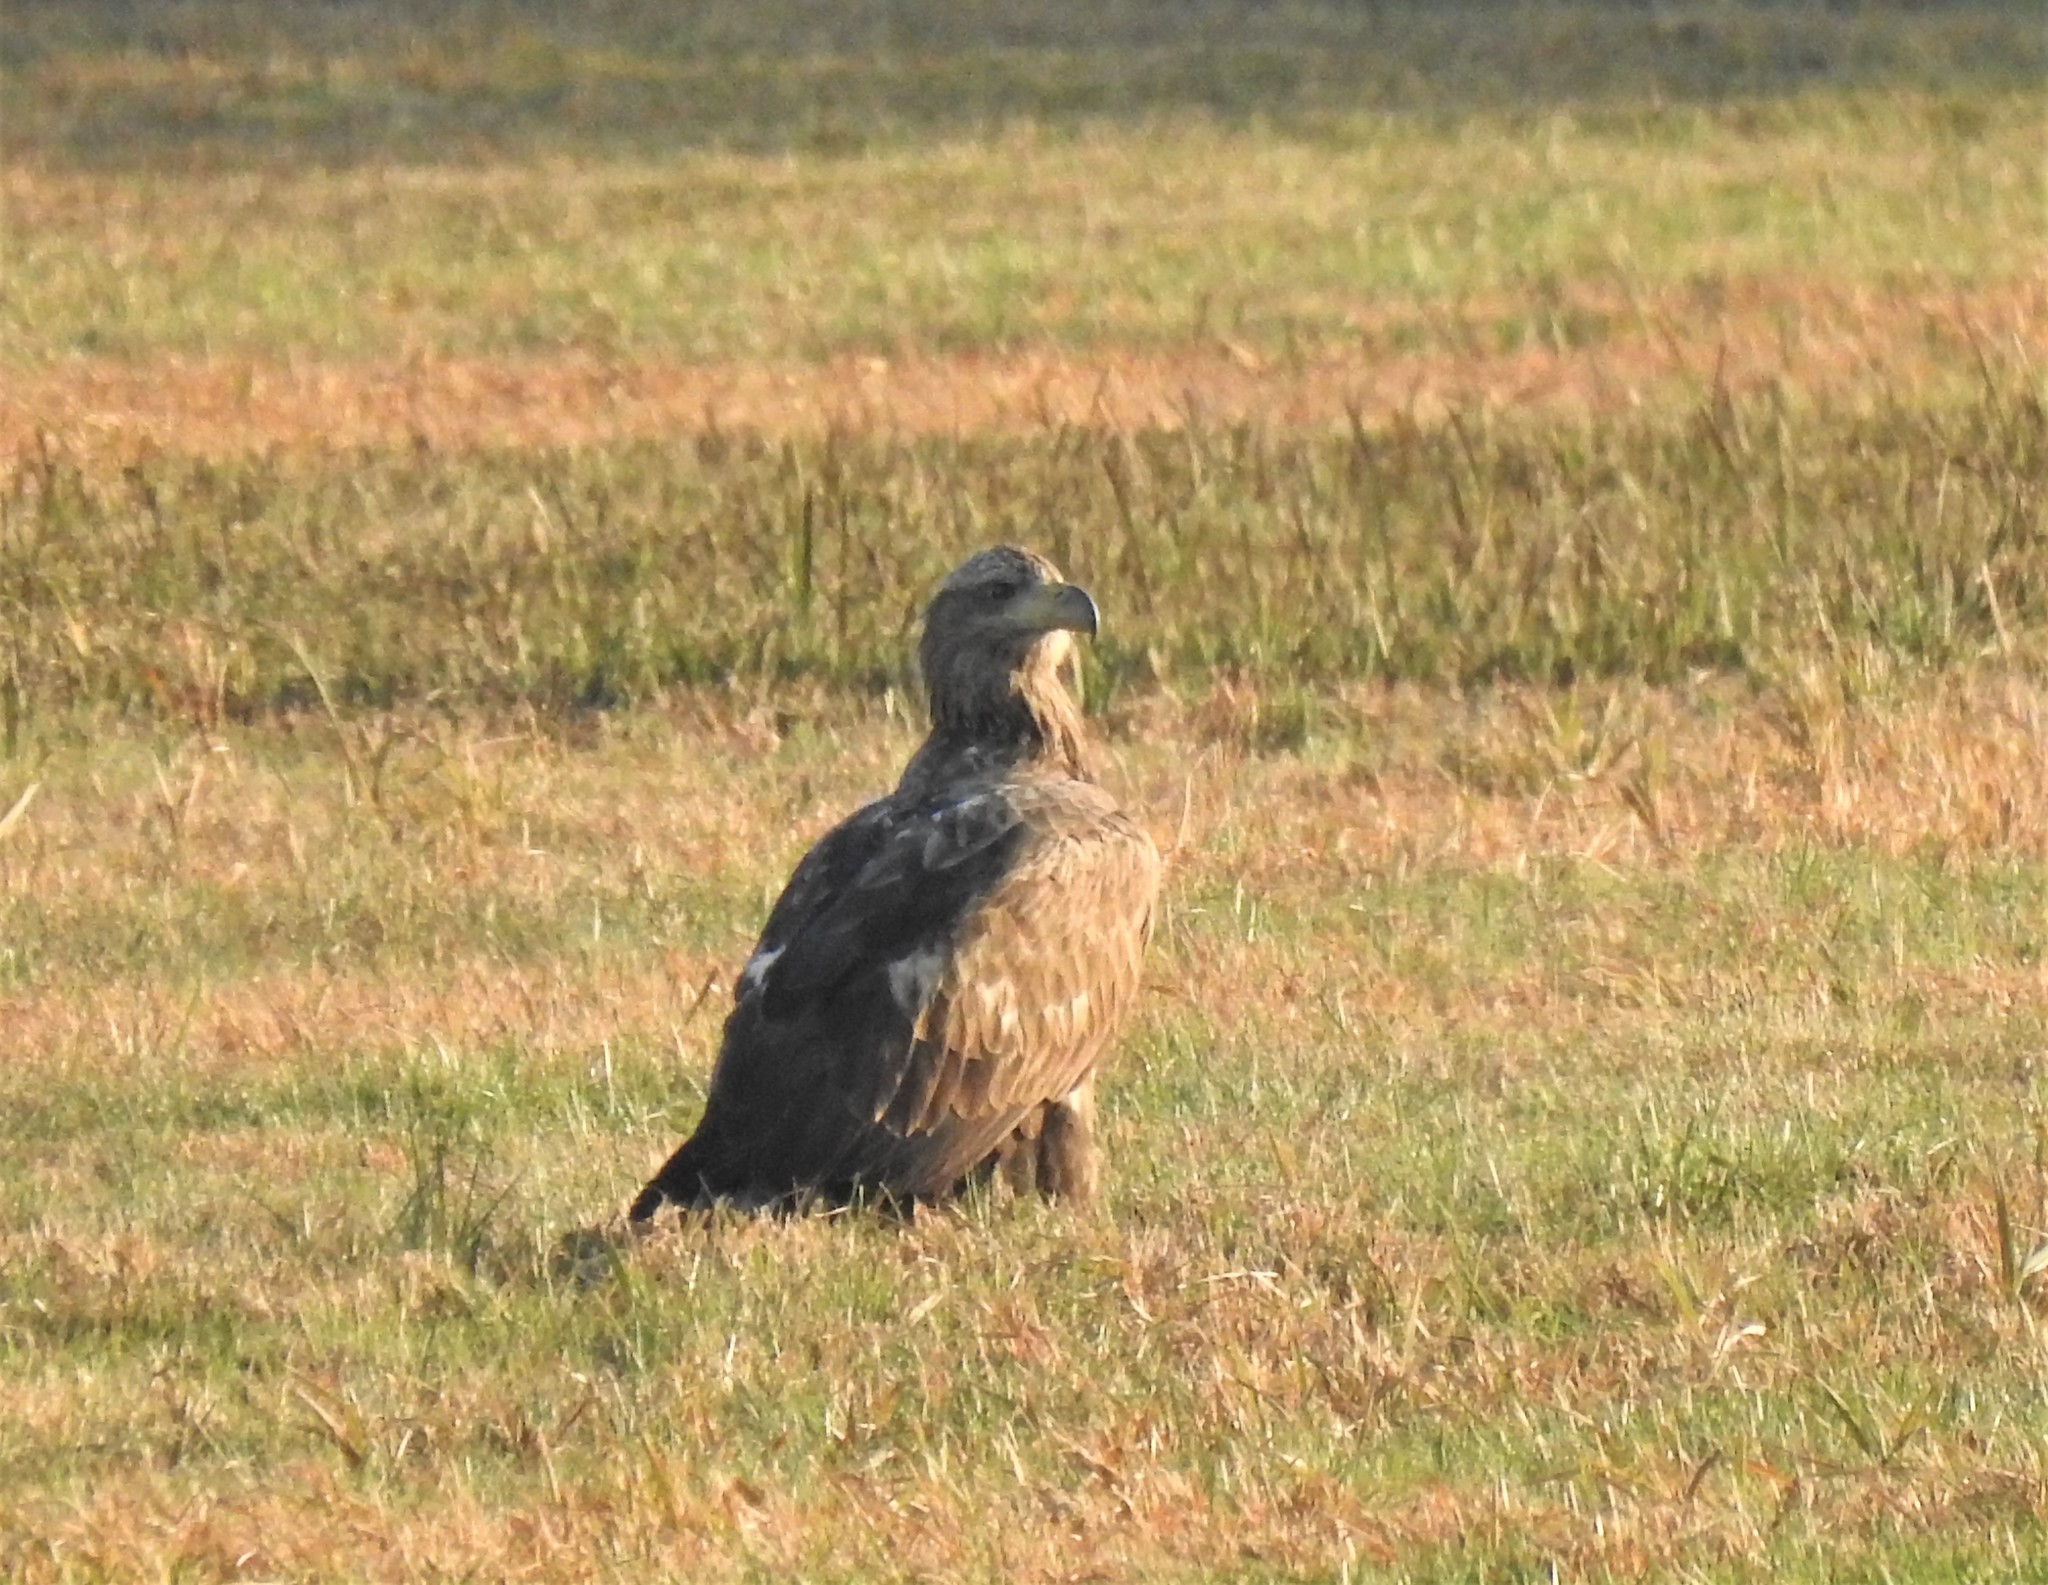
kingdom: Animalia
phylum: Chordata
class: Aves
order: Accipitriformes
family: Accipitridae
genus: Haliaeetus
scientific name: Haliaeetus albicilla
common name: White-tailed eagle
